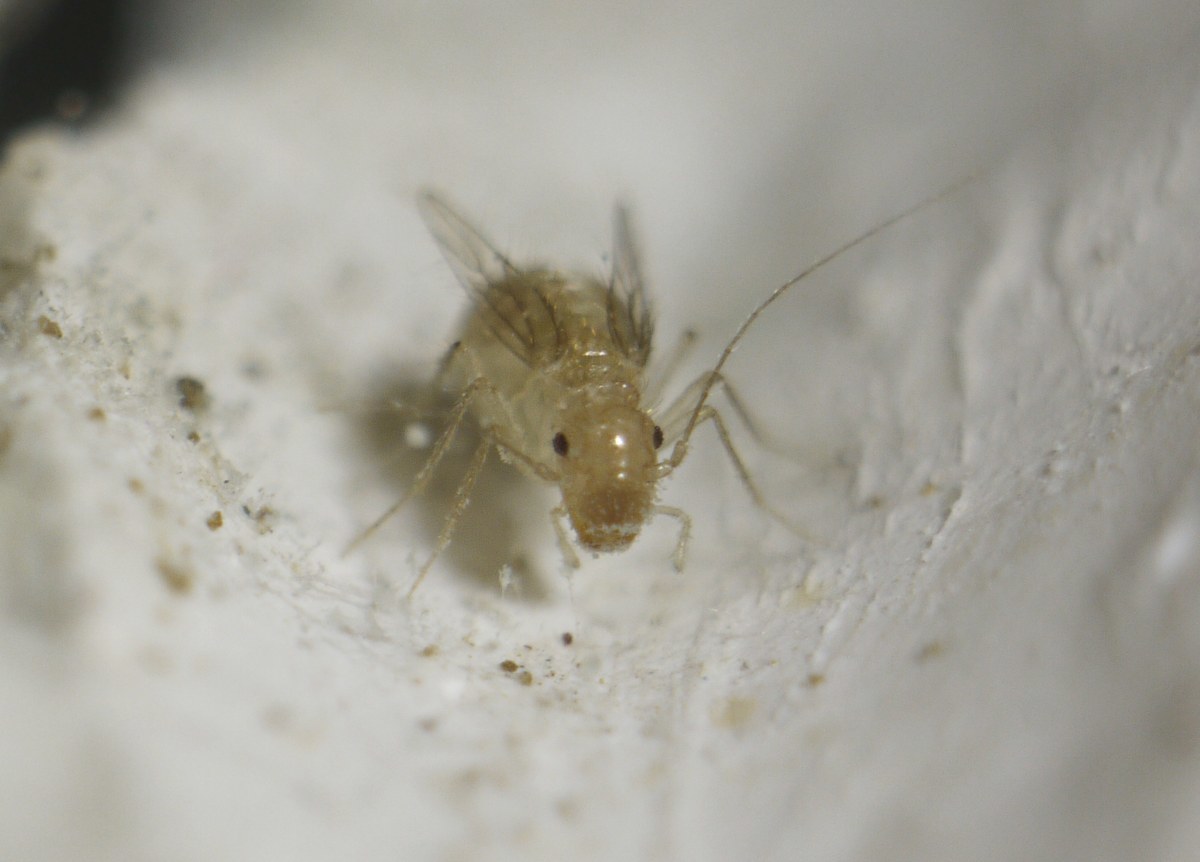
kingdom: Animalia
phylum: Arthropoda
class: Insecta
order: Psocodea
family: Psyllipsocidae
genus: Dorypteryx
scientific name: Dorypteryx domestica
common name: Cave barklouse
